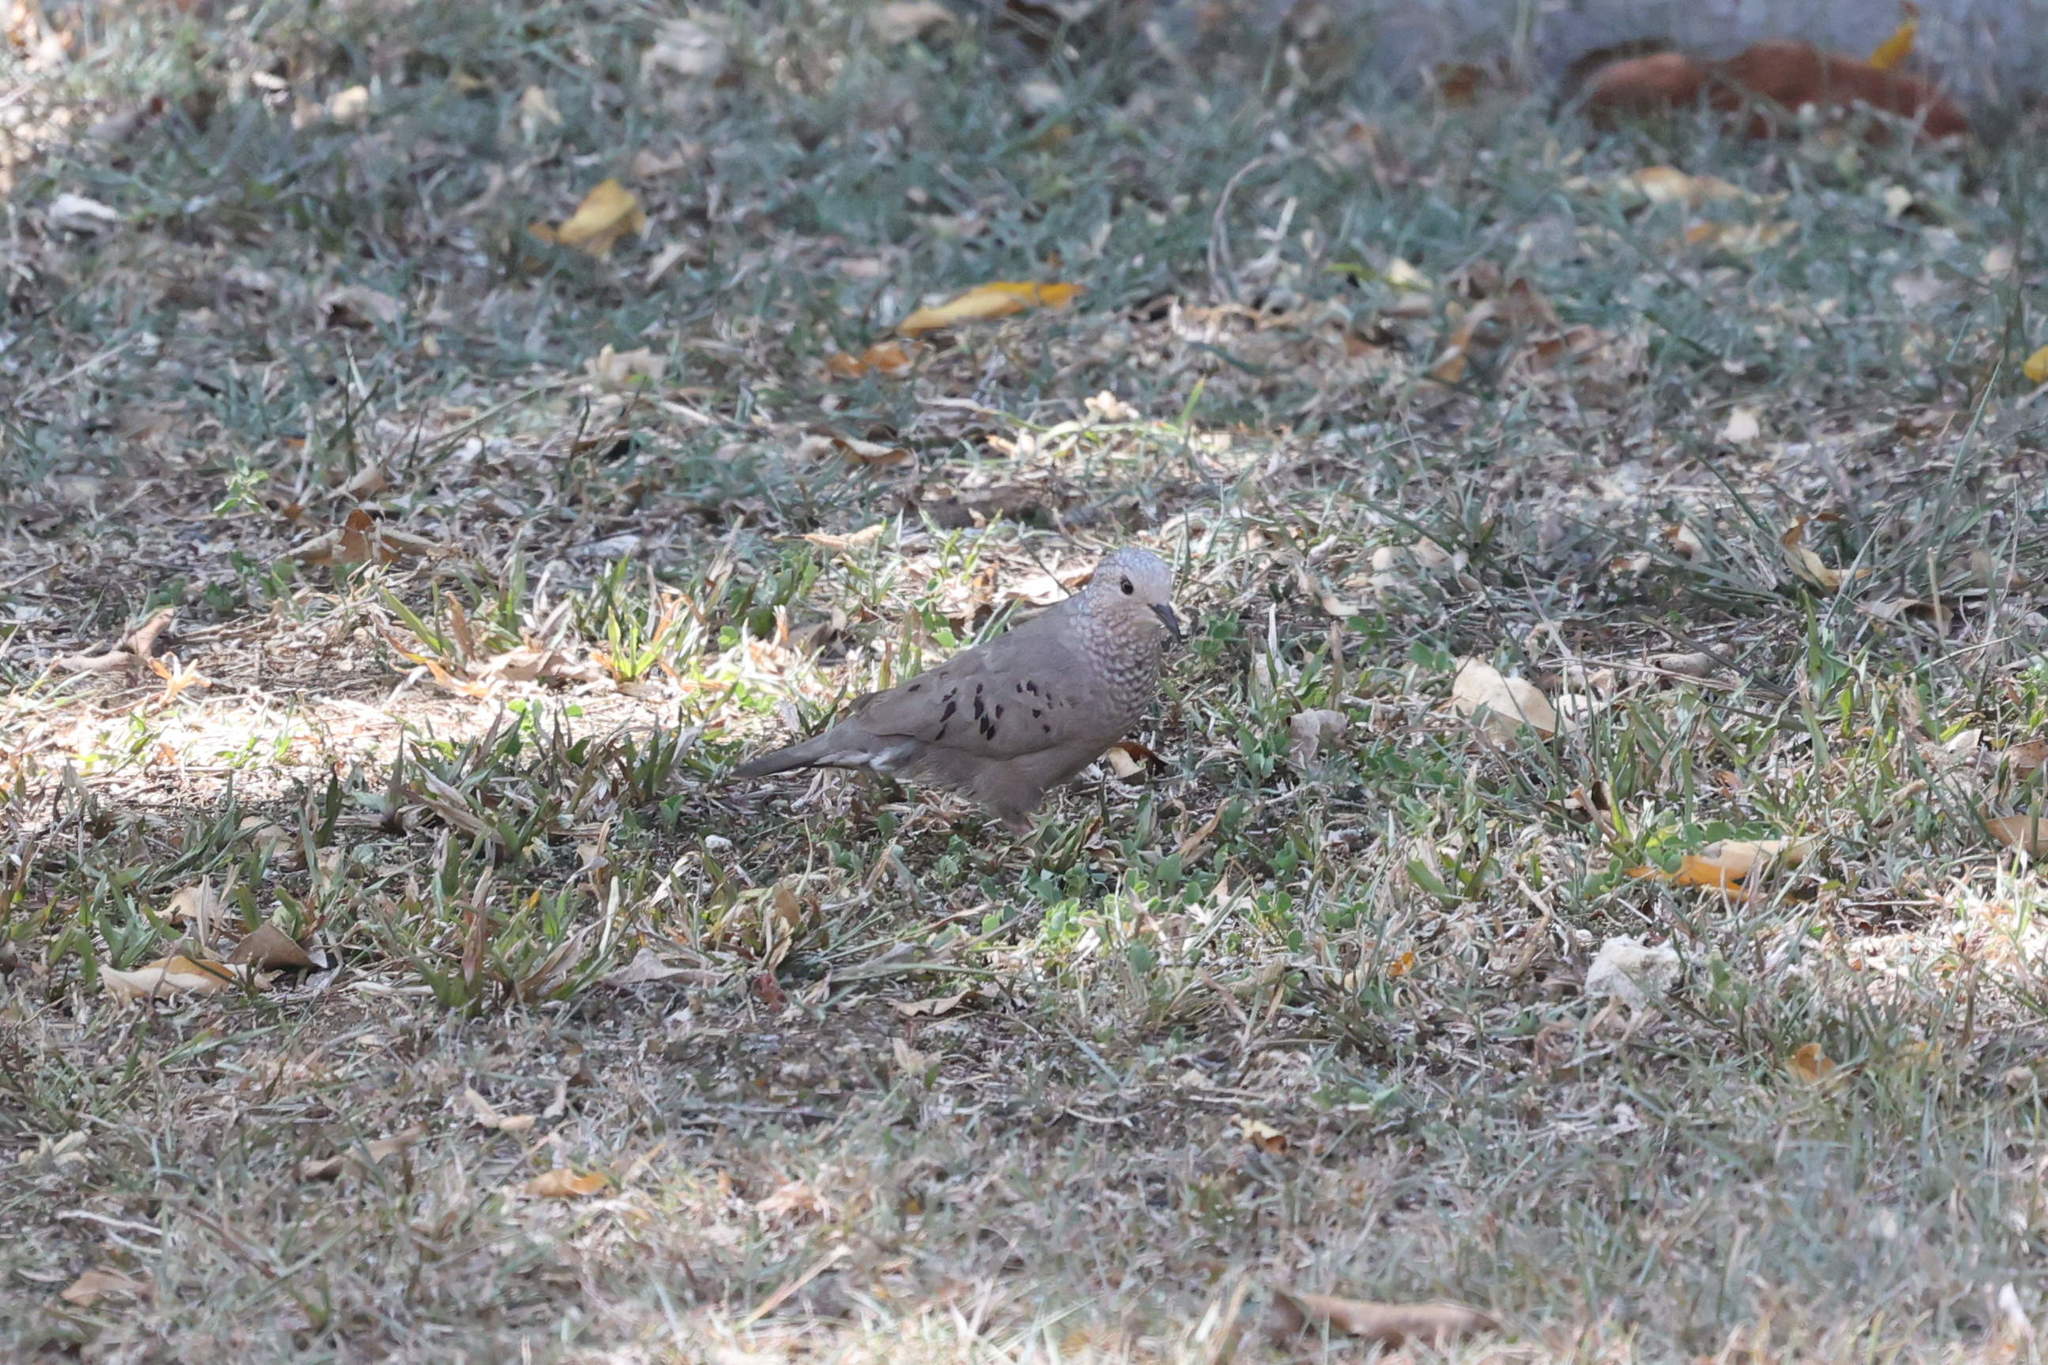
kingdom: Animalia
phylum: Chordata
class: Aves
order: Columbiformes
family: Columbidae
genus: Columbina
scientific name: Columbina passerina
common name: Common ground-dove
